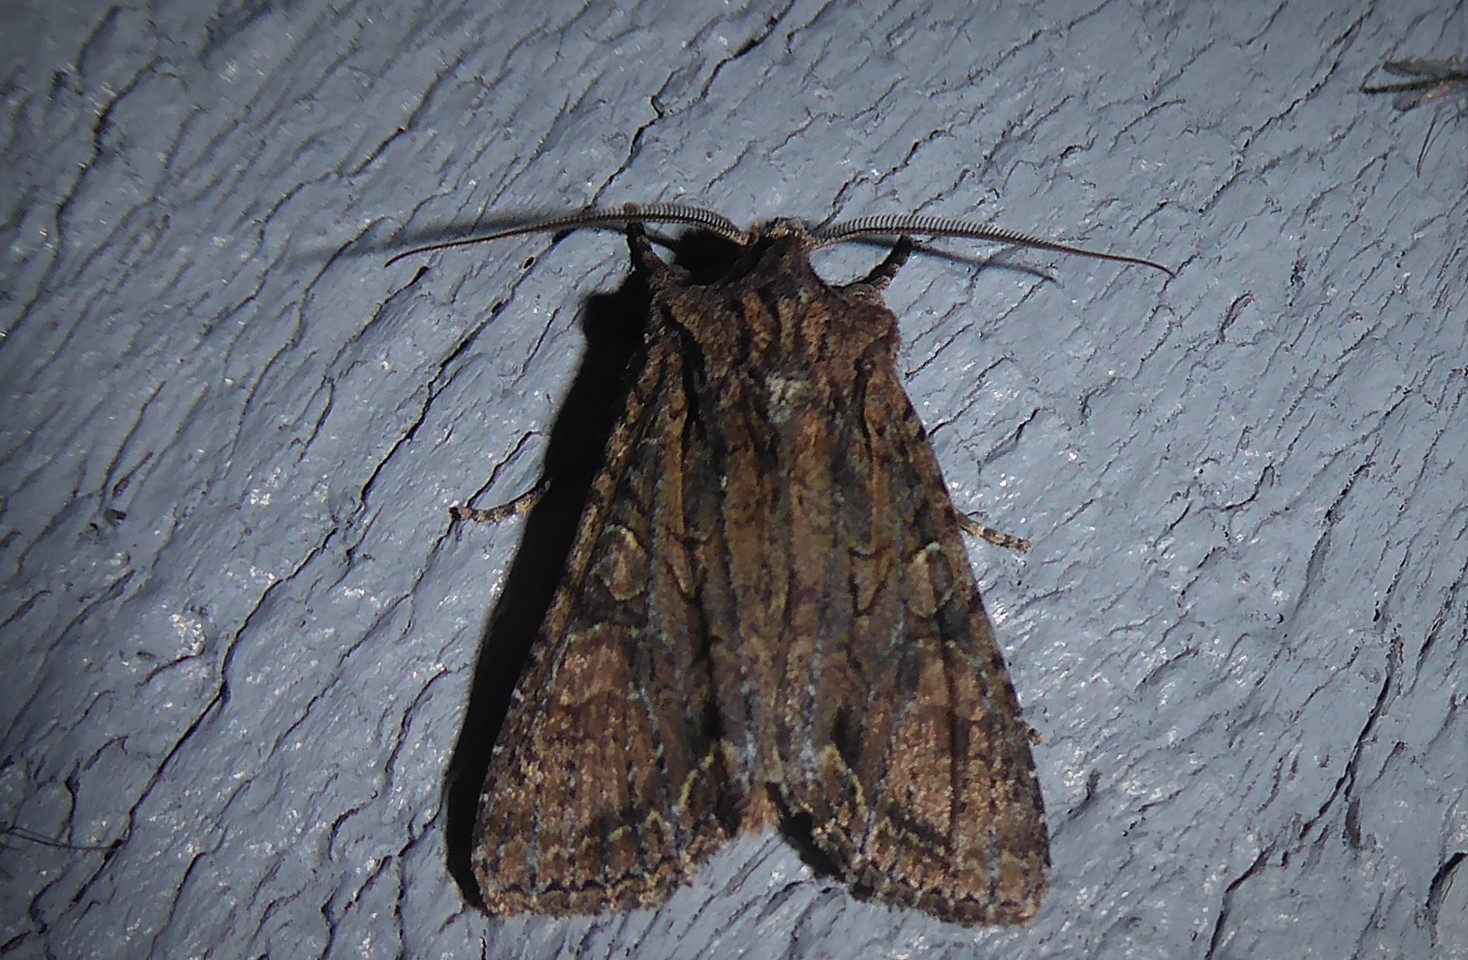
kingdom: Animalia
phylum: Arthropoda
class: Insecta
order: Lepidoptera
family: Noctuidae
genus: Ichneutica
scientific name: Ichneutica mutans
